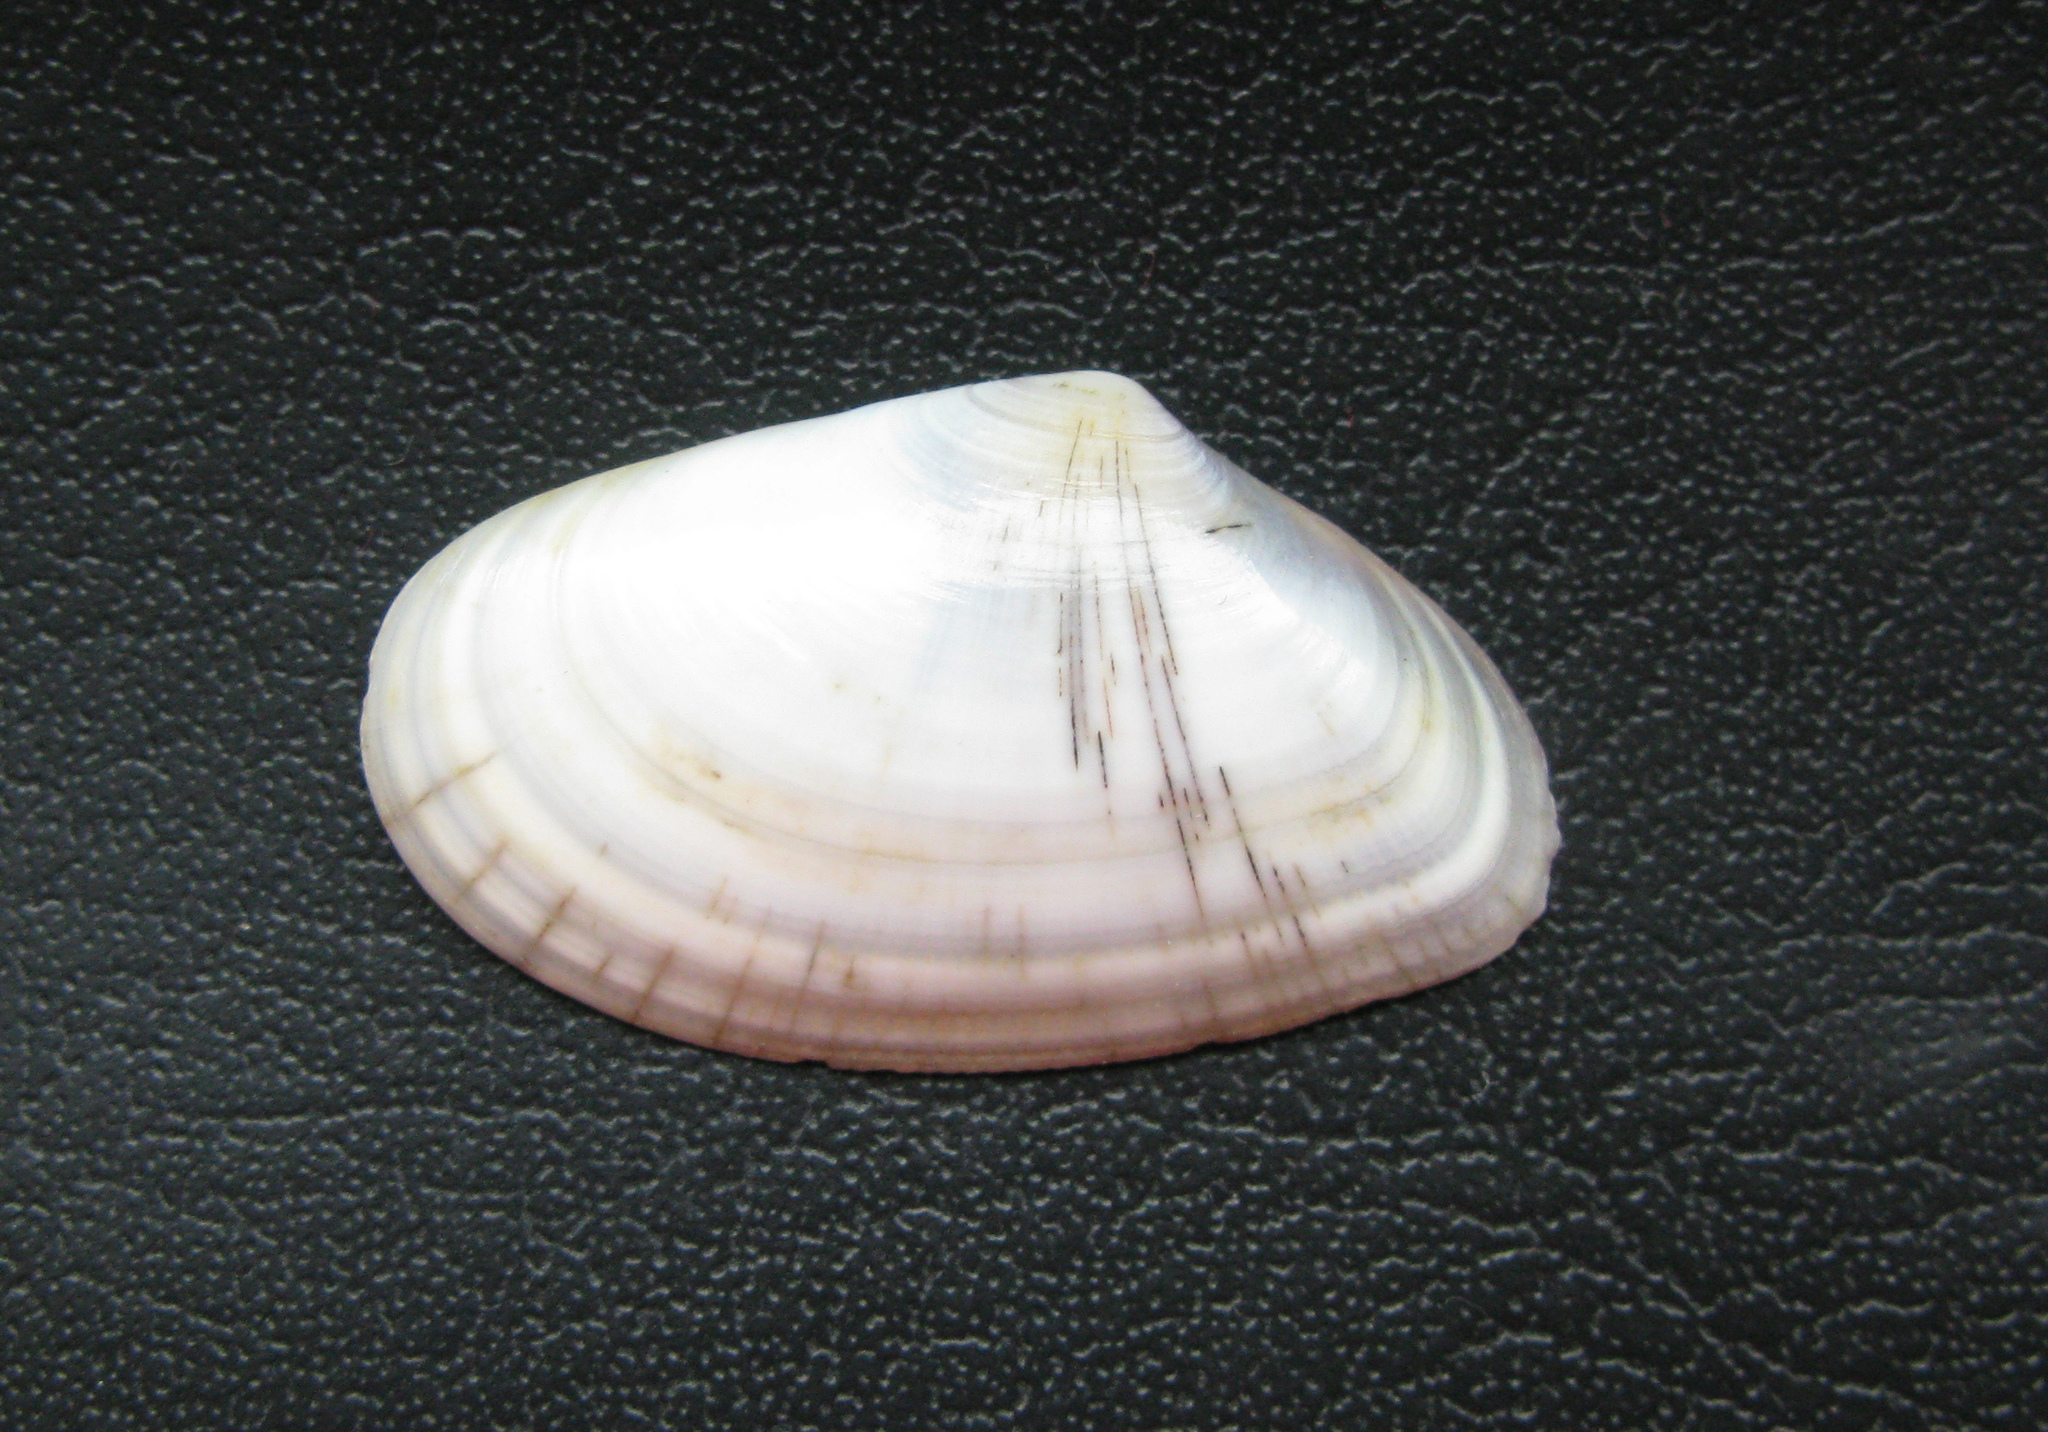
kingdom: Animalia
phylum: Mollusca
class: Bivalvia
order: Cardiida
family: Donacidae
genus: Donax
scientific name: Donax trunculus
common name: Truncate donax
